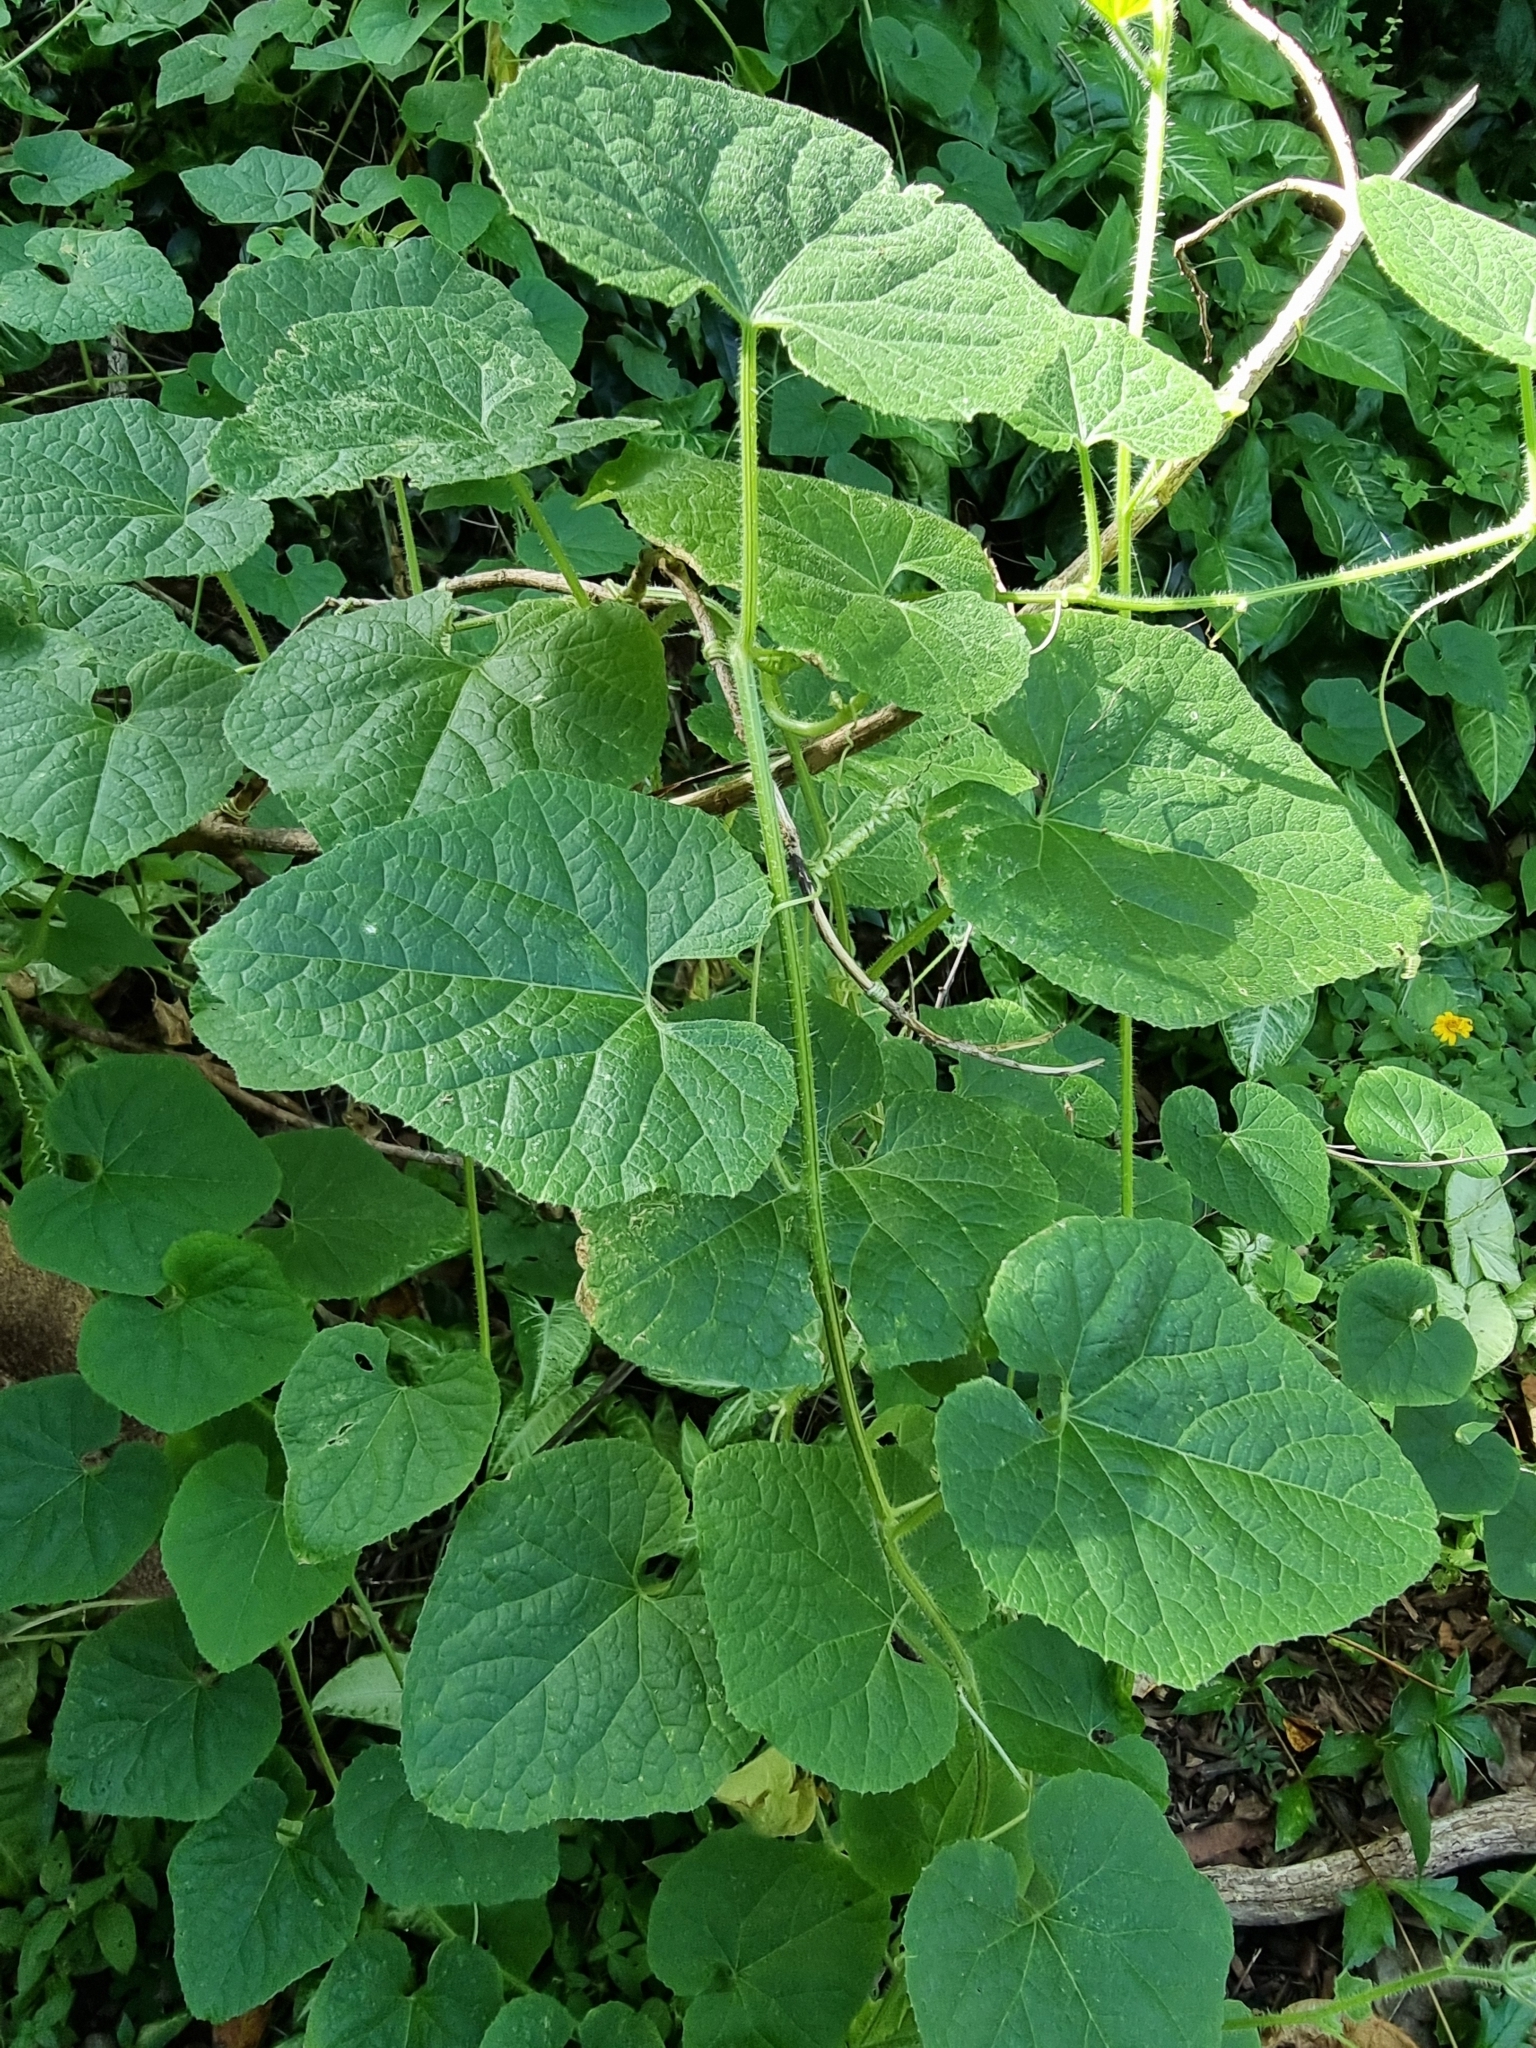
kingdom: Plantae
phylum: Tracheophyta
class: Magnoliopsida
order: Cucurbitales
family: Cucurbitaceae
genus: Cucumis
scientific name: Cucumis metuliferus
